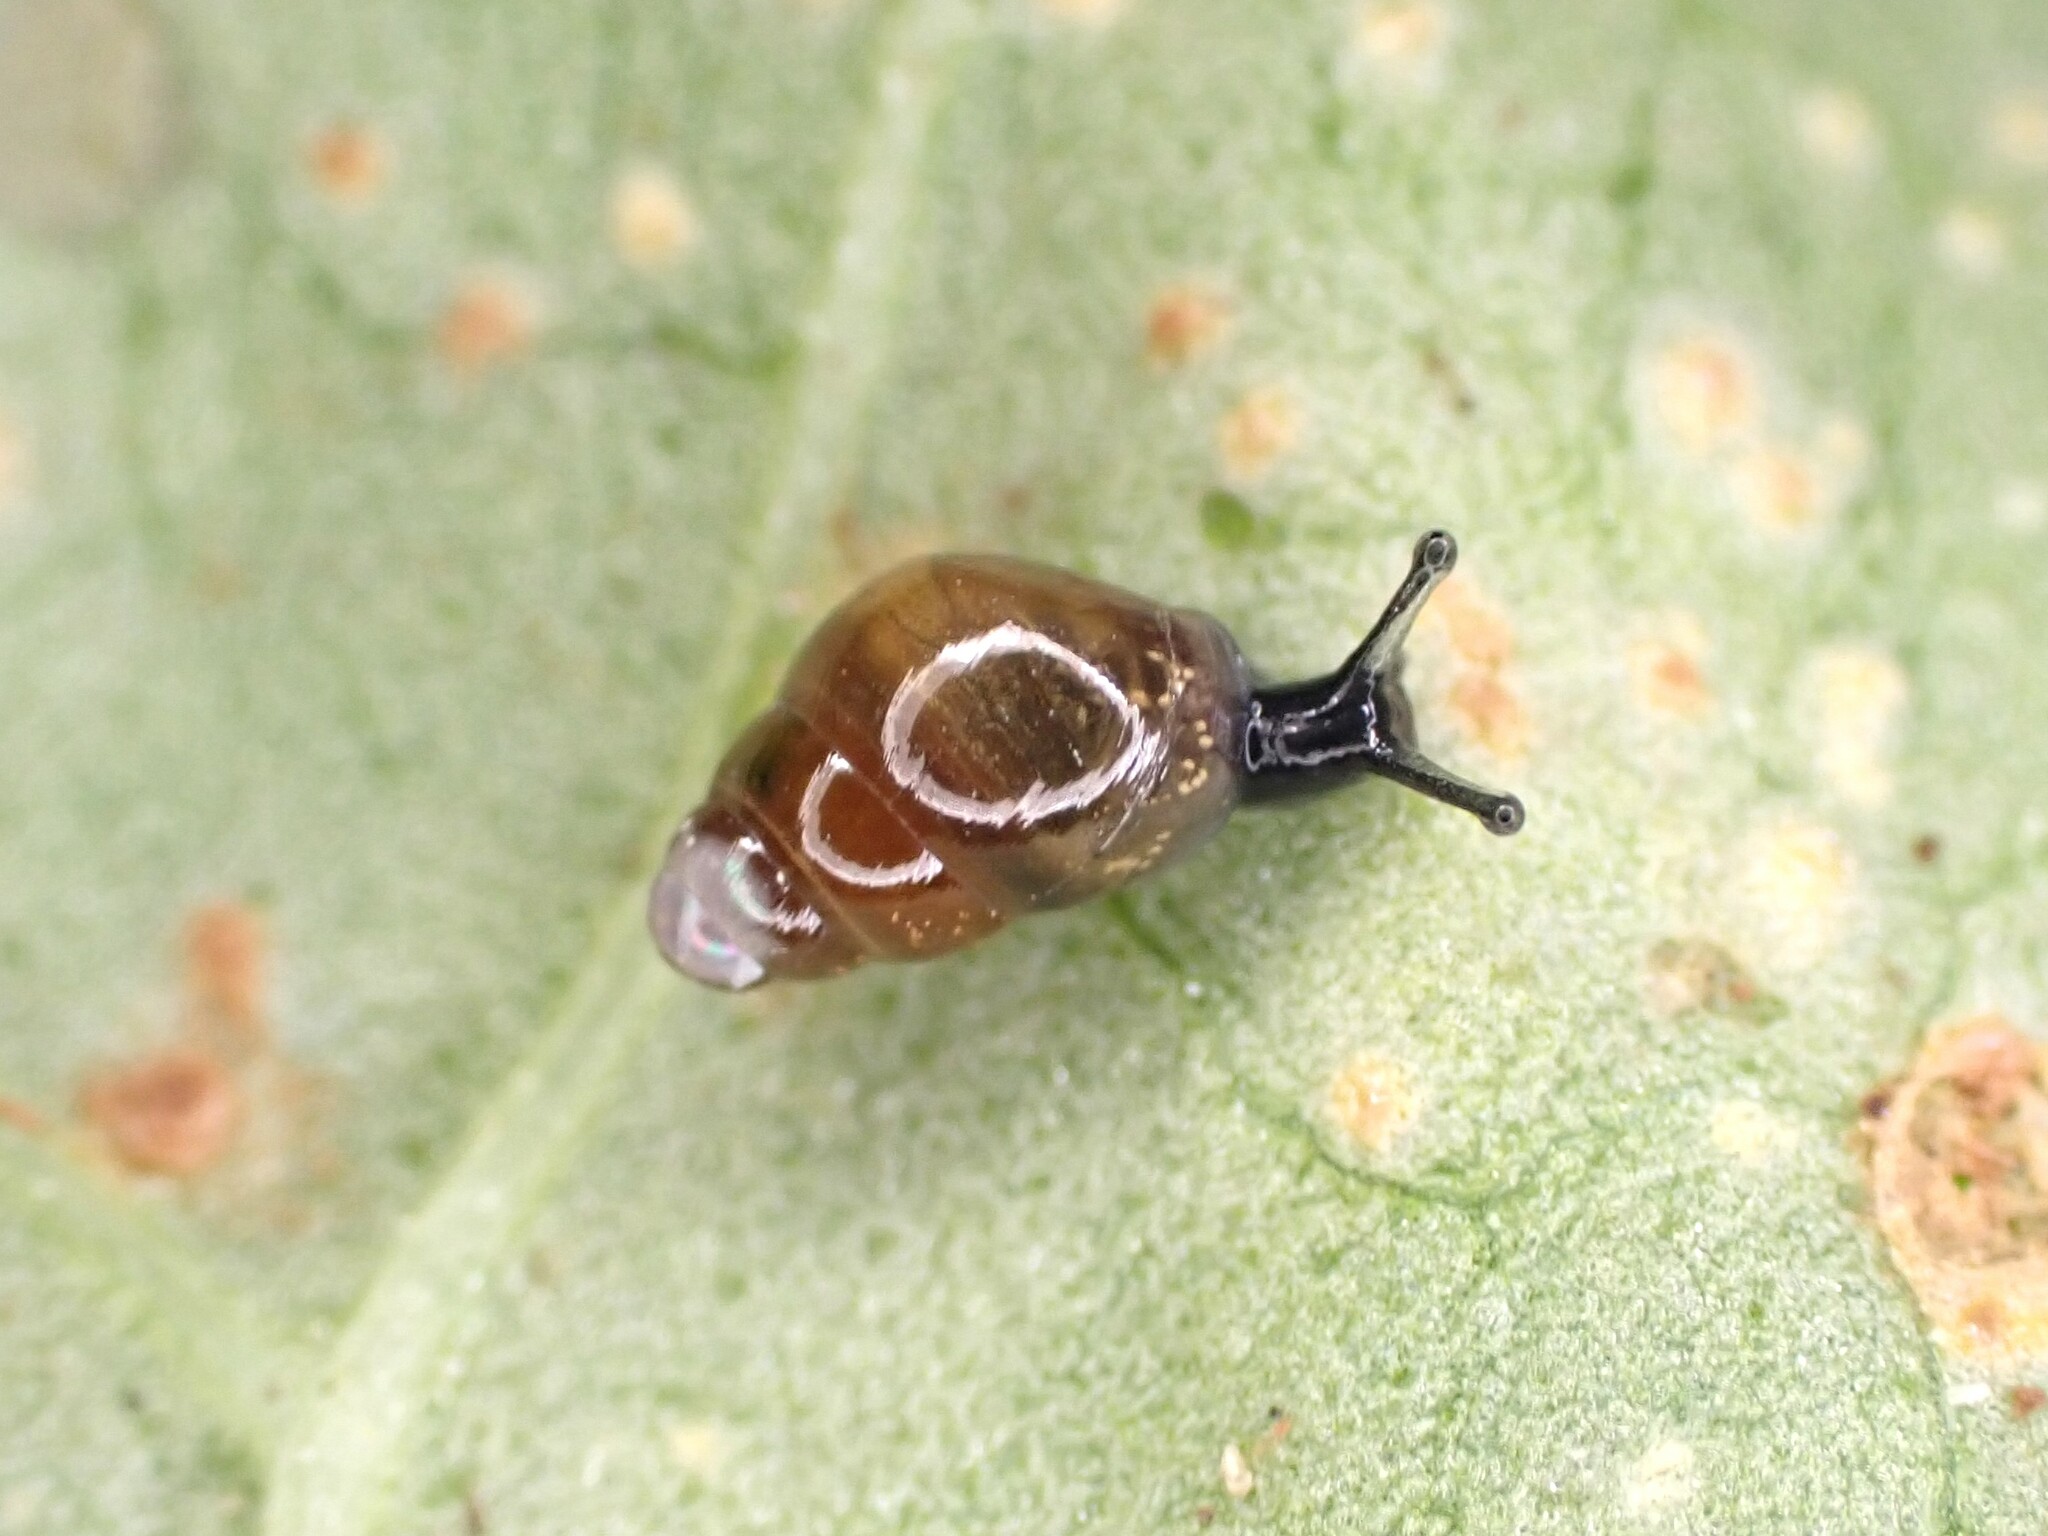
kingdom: Animalia
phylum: Mollusca
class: Gastropoda
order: Stylommatophora
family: Cochlicopidae
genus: Cochlicopa
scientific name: Cochlicopa lubrica
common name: Glossy pillar snail
